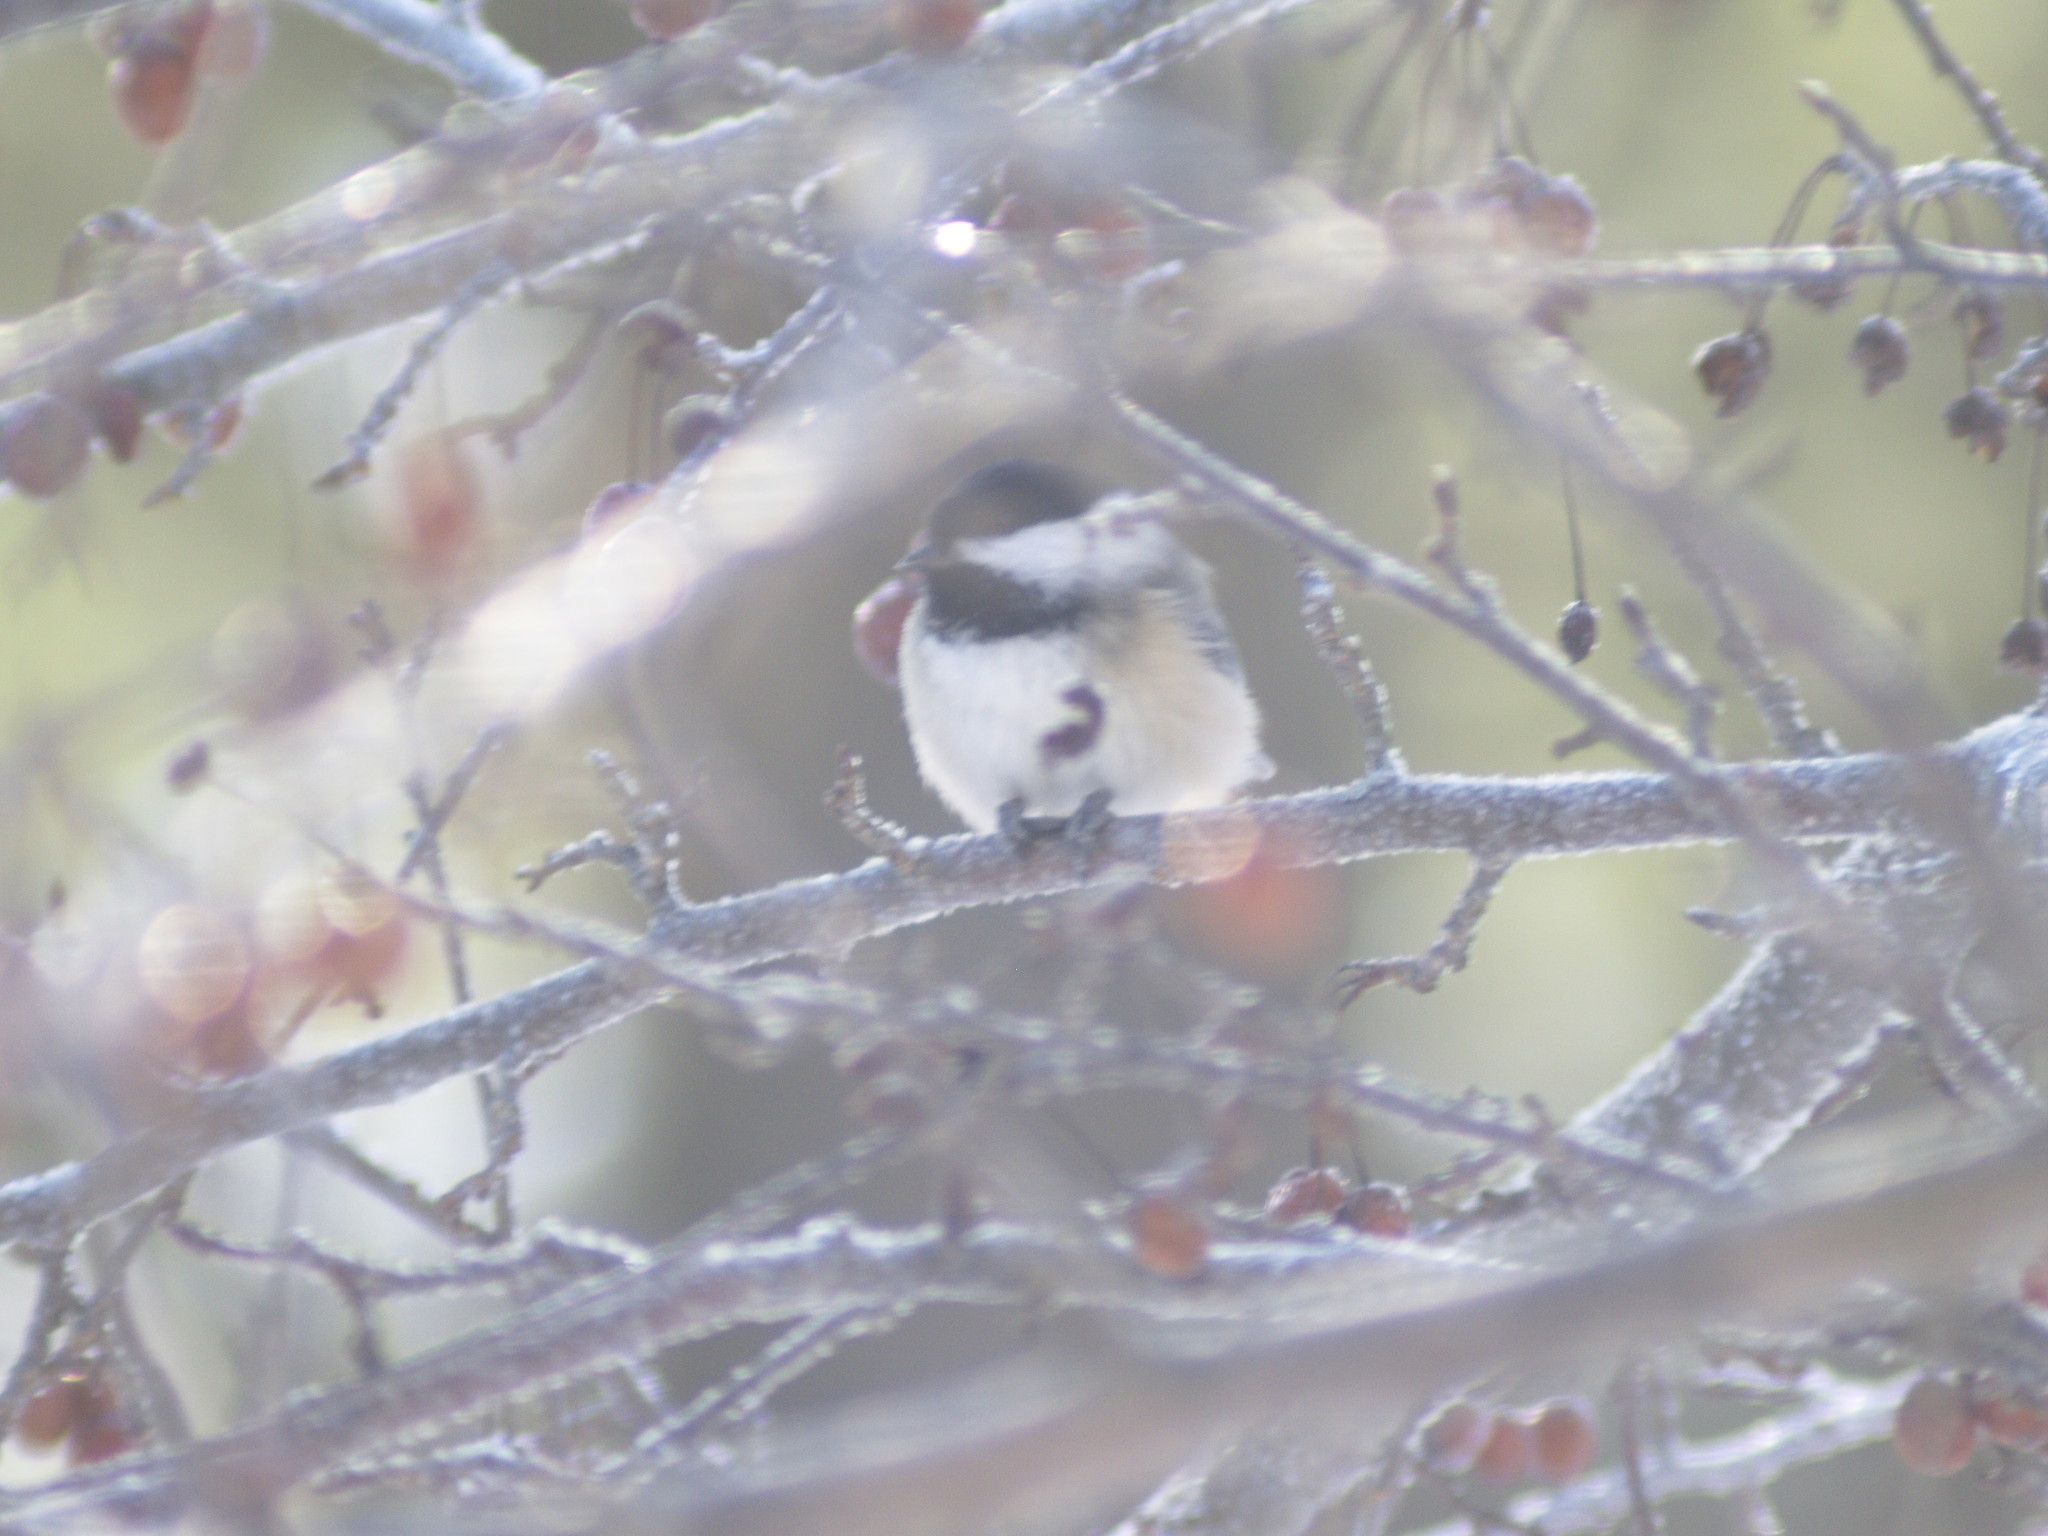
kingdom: Animalia
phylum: Chordata
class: Aves
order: Passeriformes
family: Paridae
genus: Poecile
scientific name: Poecile atricapillus
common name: Black-capped chickadee
